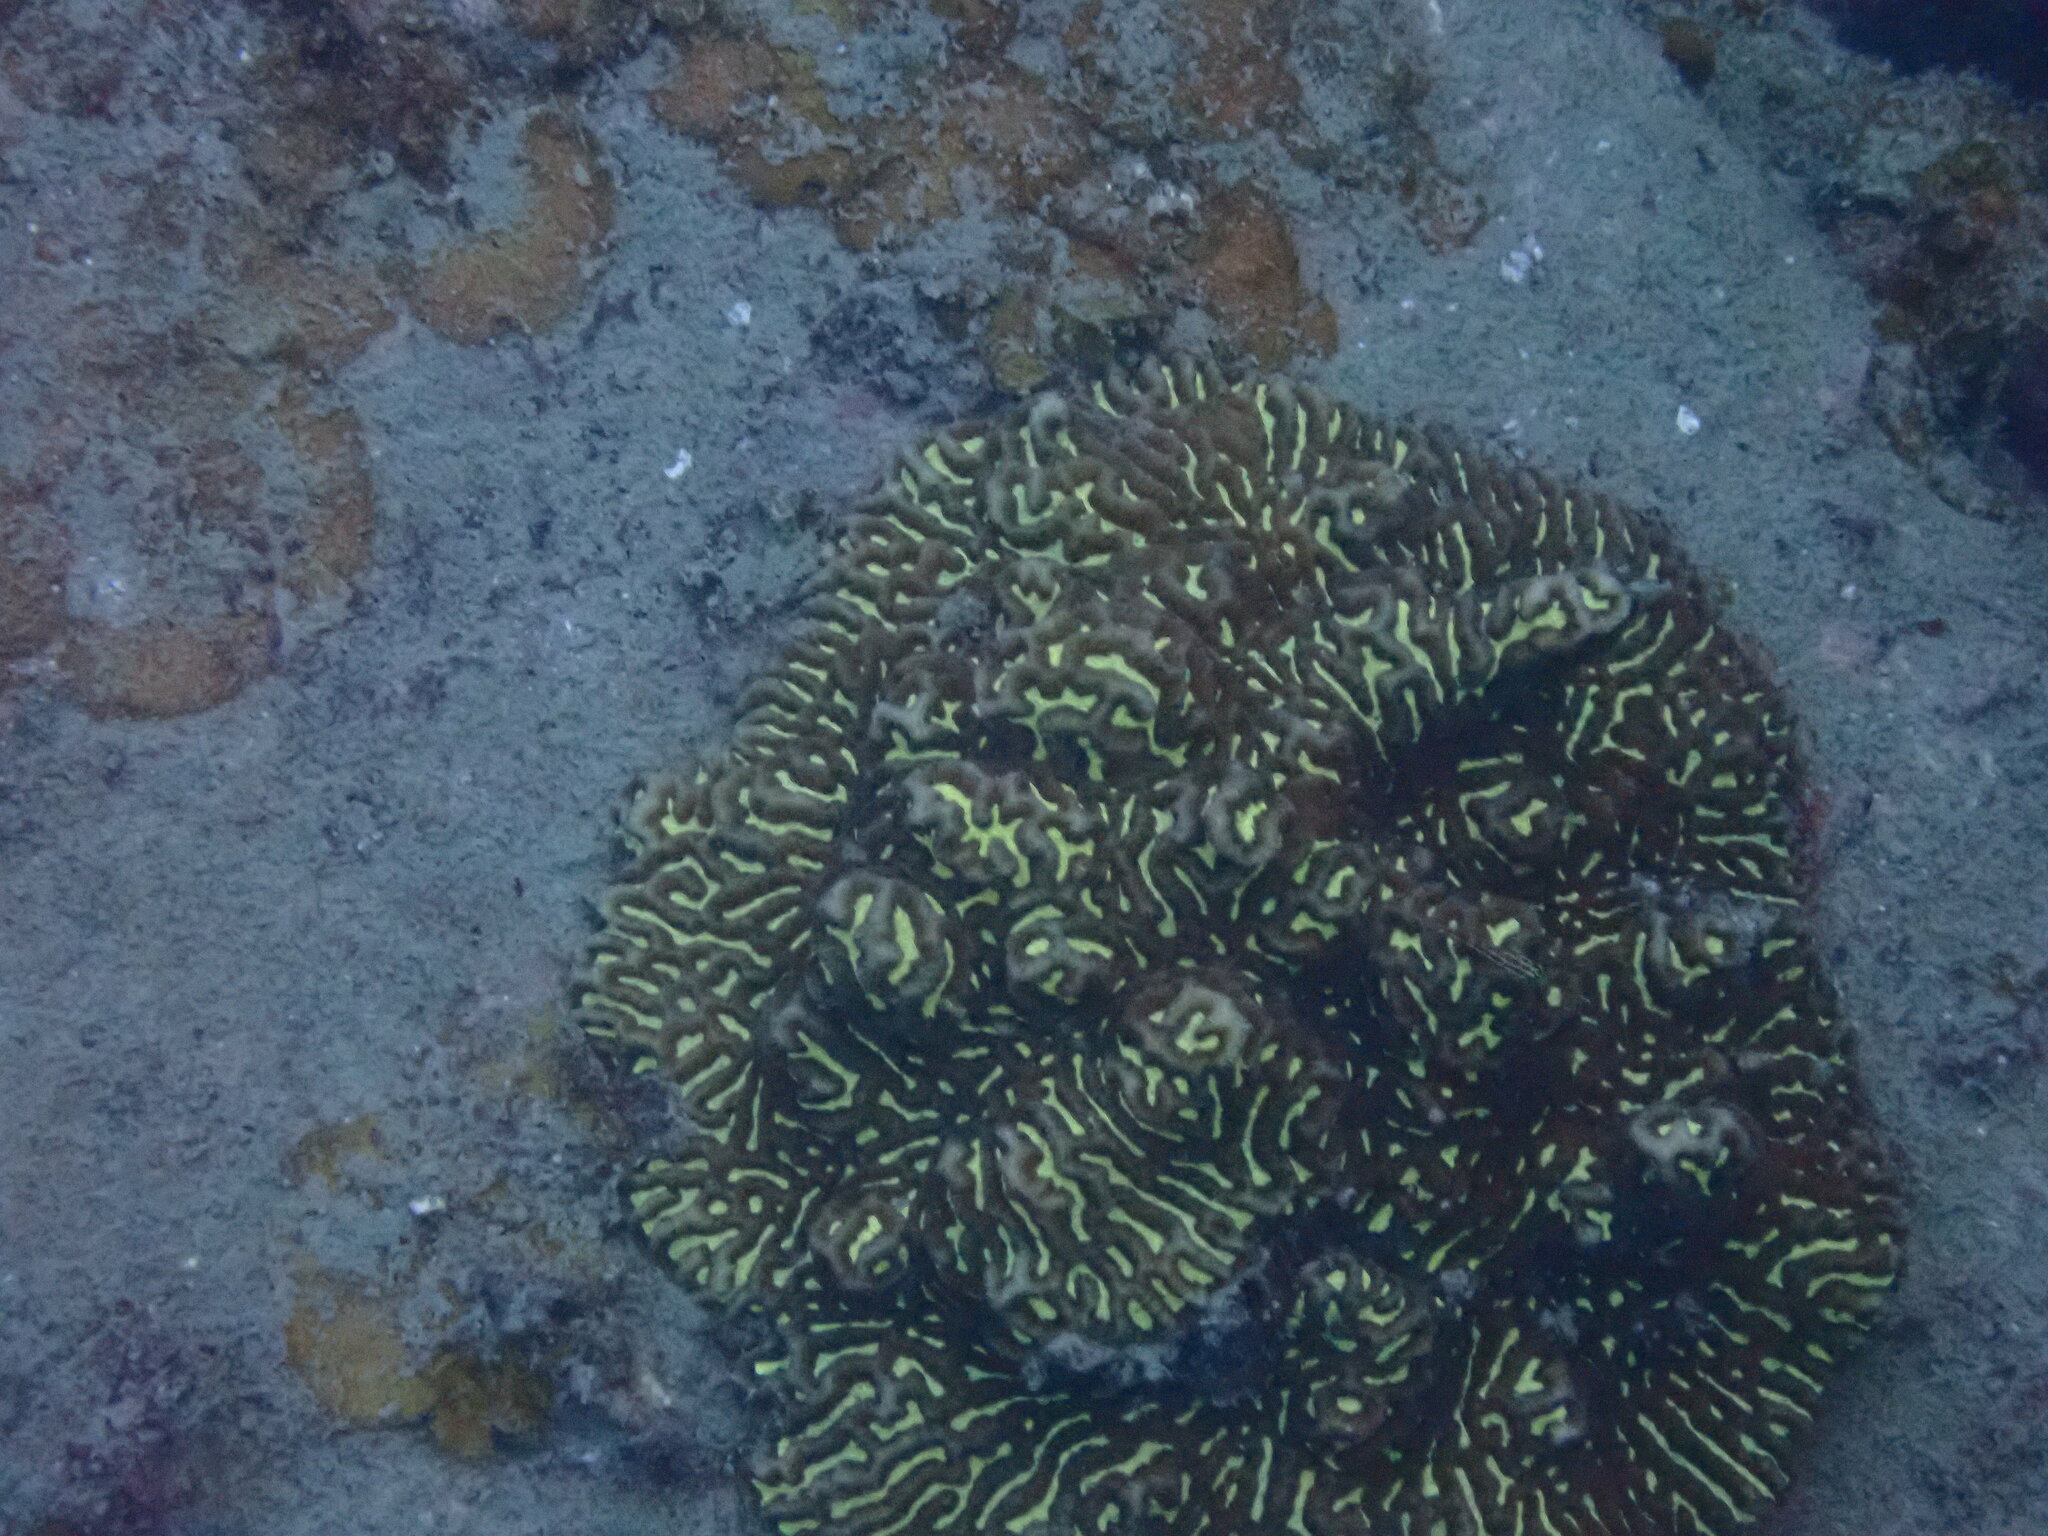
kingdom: Animalia
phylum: Cnidaria
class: Anthozoa
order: Scleractinia
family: Merulinidae
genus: Platygyra
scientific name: Platygyra
